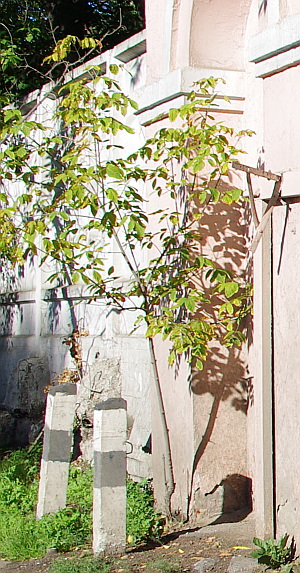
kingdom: Plantae
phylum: Tracheophyta
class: Magnoliopsida
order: Sapindales
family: Sapindaceae
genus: Acer
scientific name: Acer negundo
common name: Ashleaf maple
